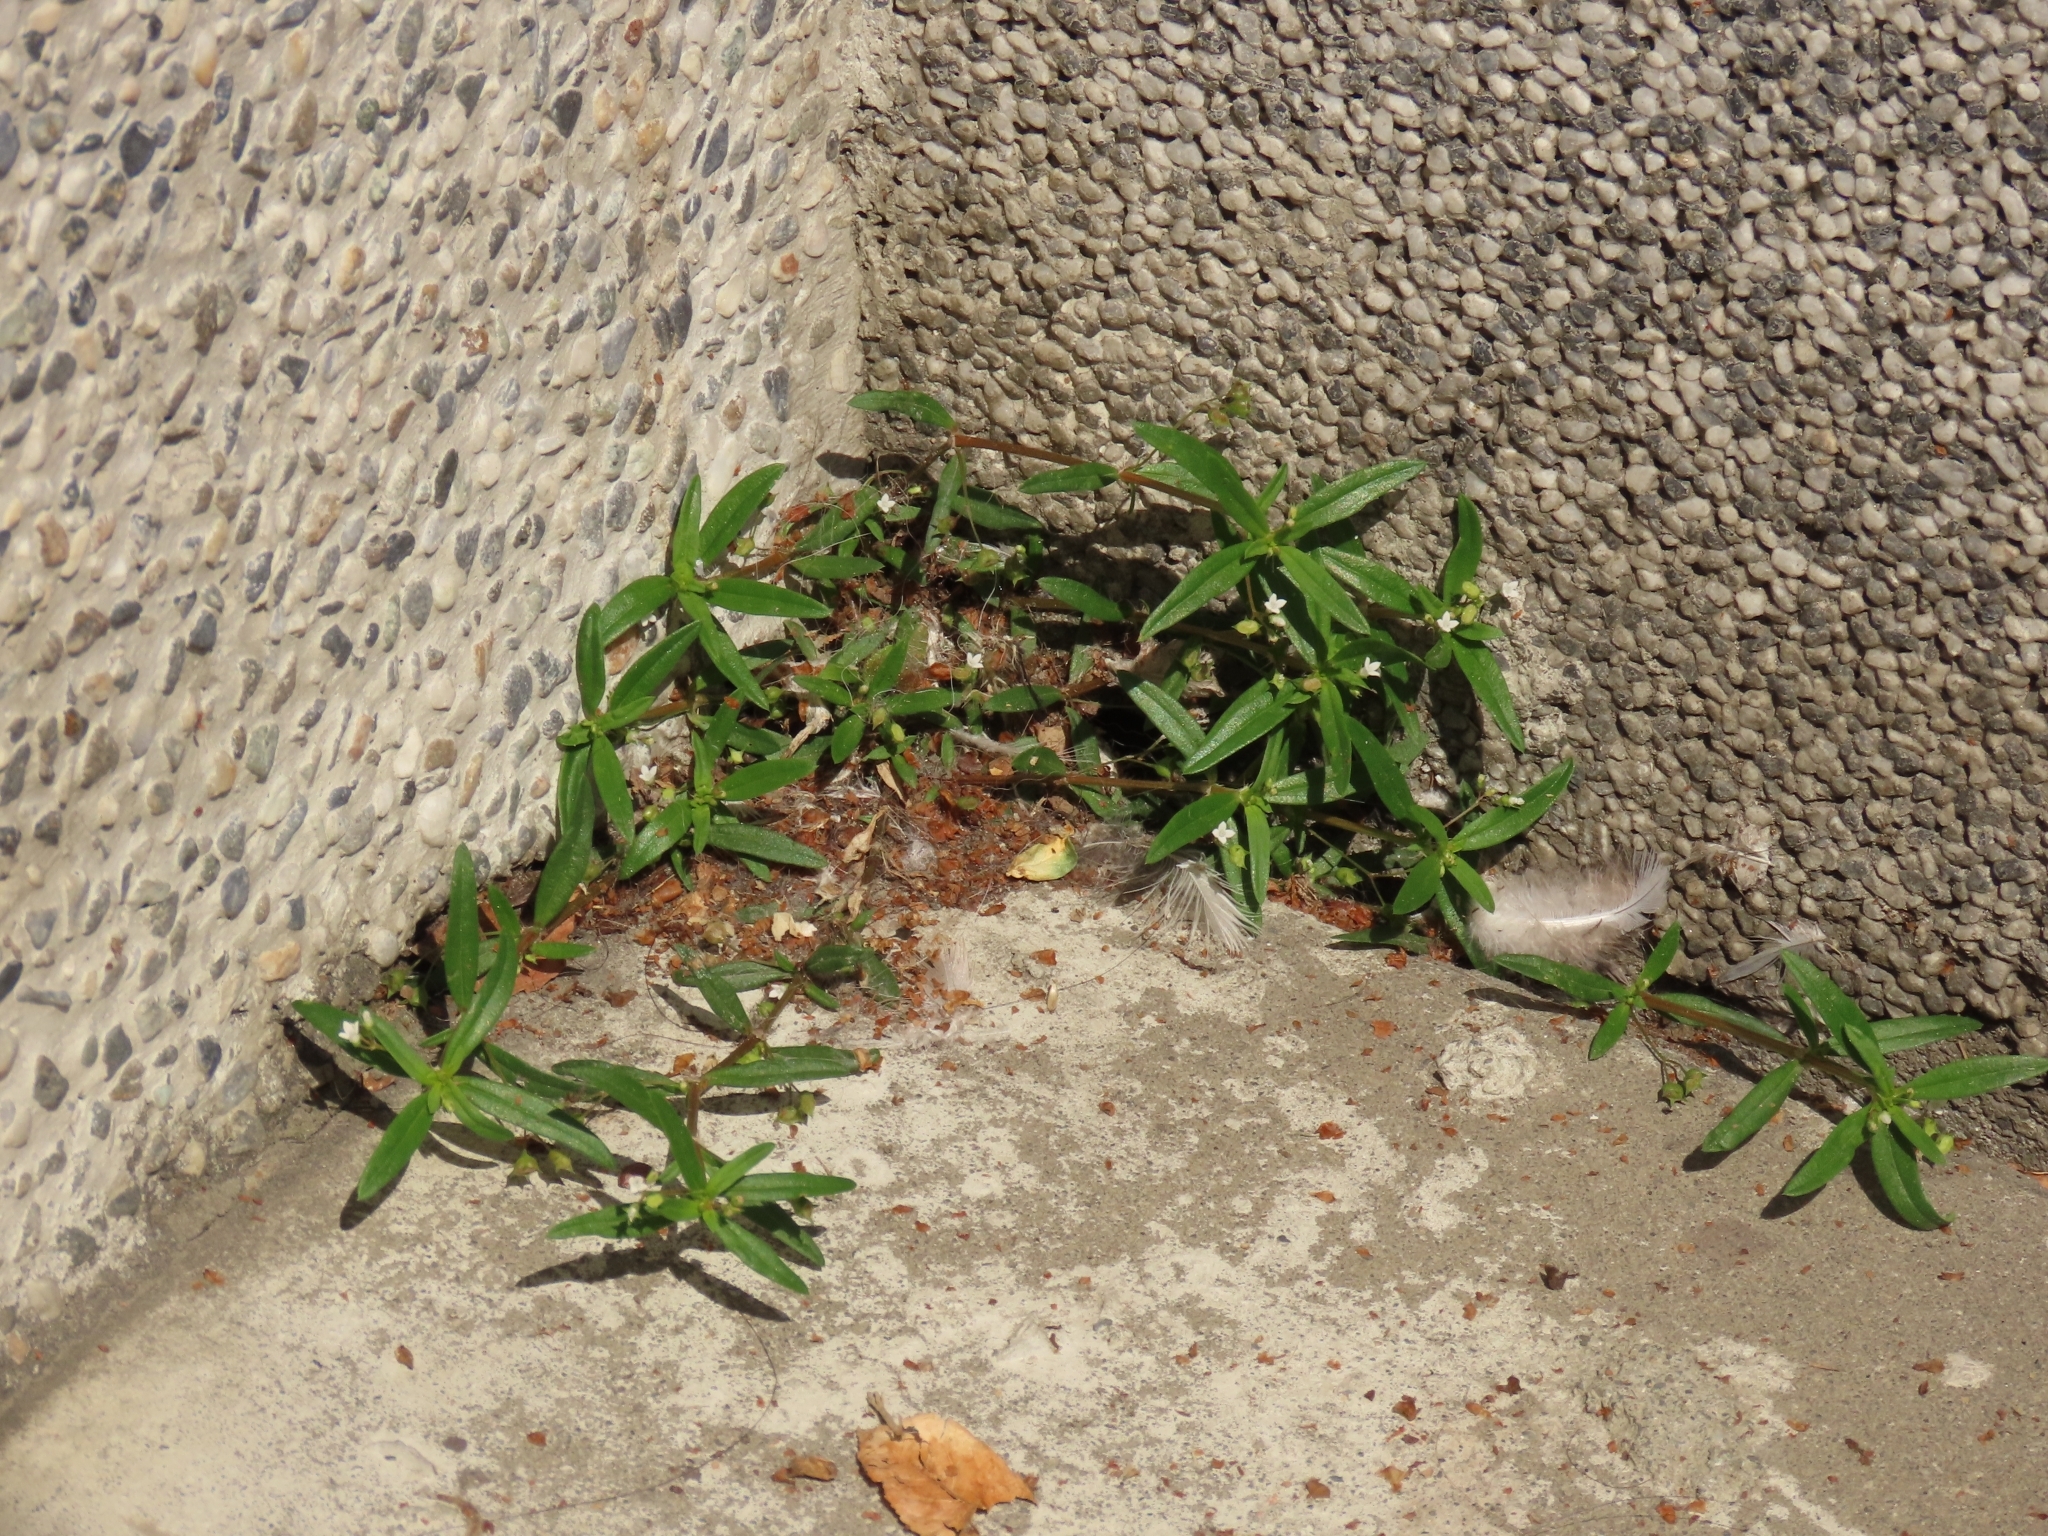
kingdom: Plantae
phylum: Tracheophyta
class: Magnoliopsida
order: Gentianales
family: Rubiaceae
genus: Oldenlandia
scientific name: Oldenlandia corymbosa
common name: Flat-top mille graines
